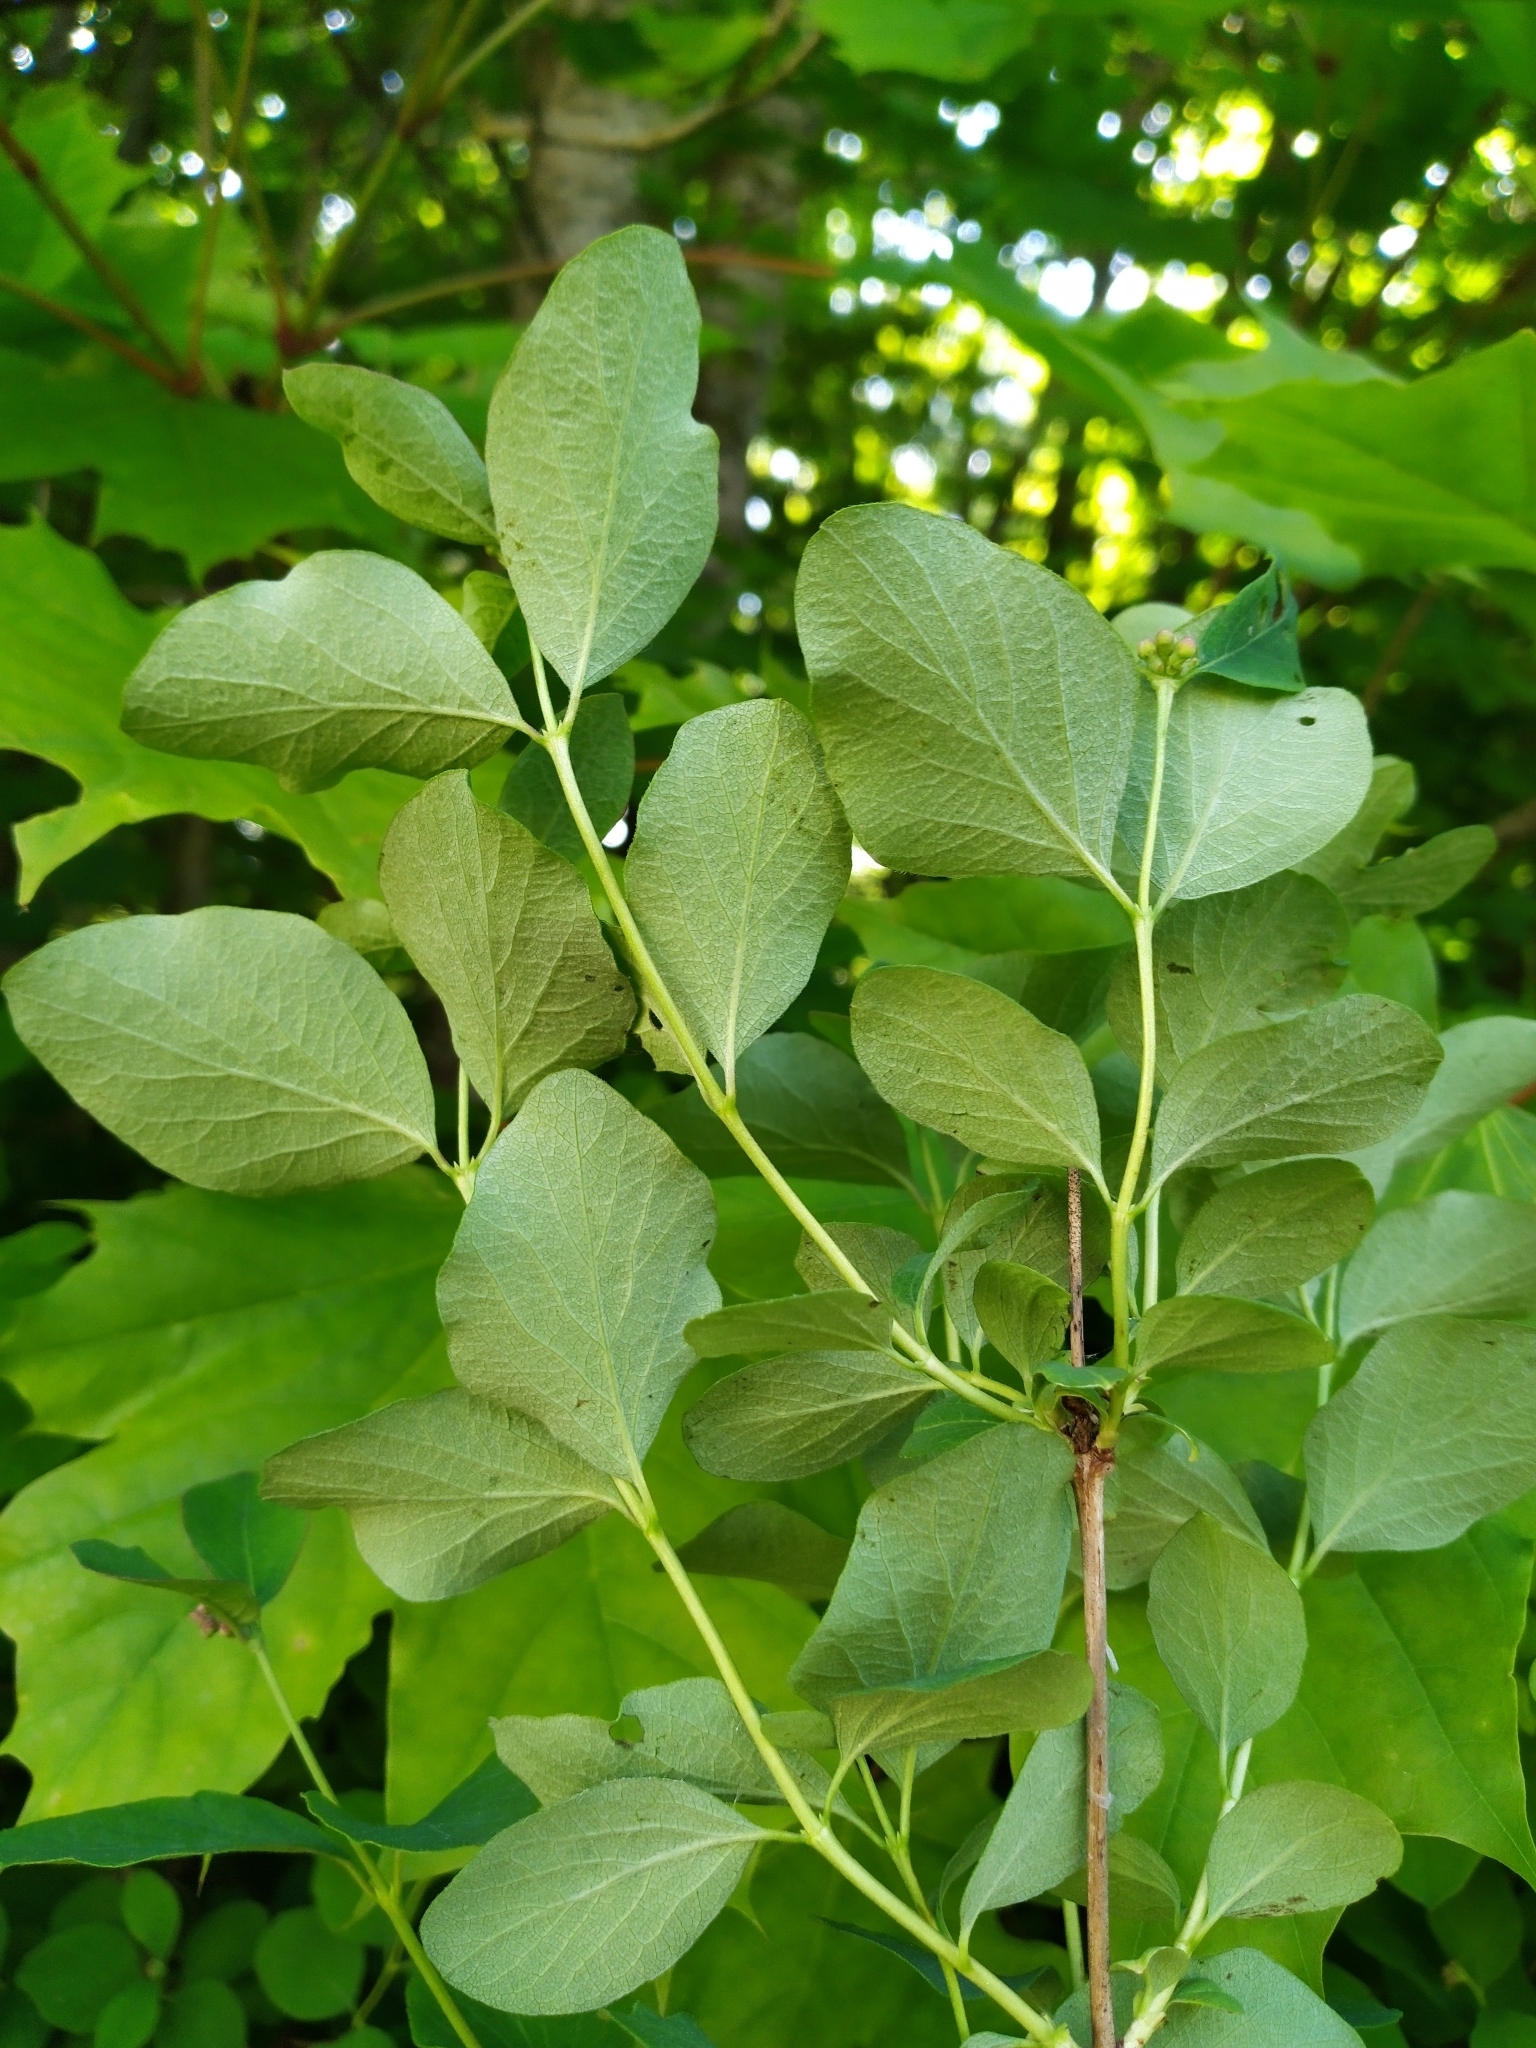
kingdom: Plantae
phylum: Tracheophyta
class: Magnoliopsida
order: Dipsacales
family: Caprifoliaceae
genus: Symphoricarpos
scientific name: Symphoricarpos albus
